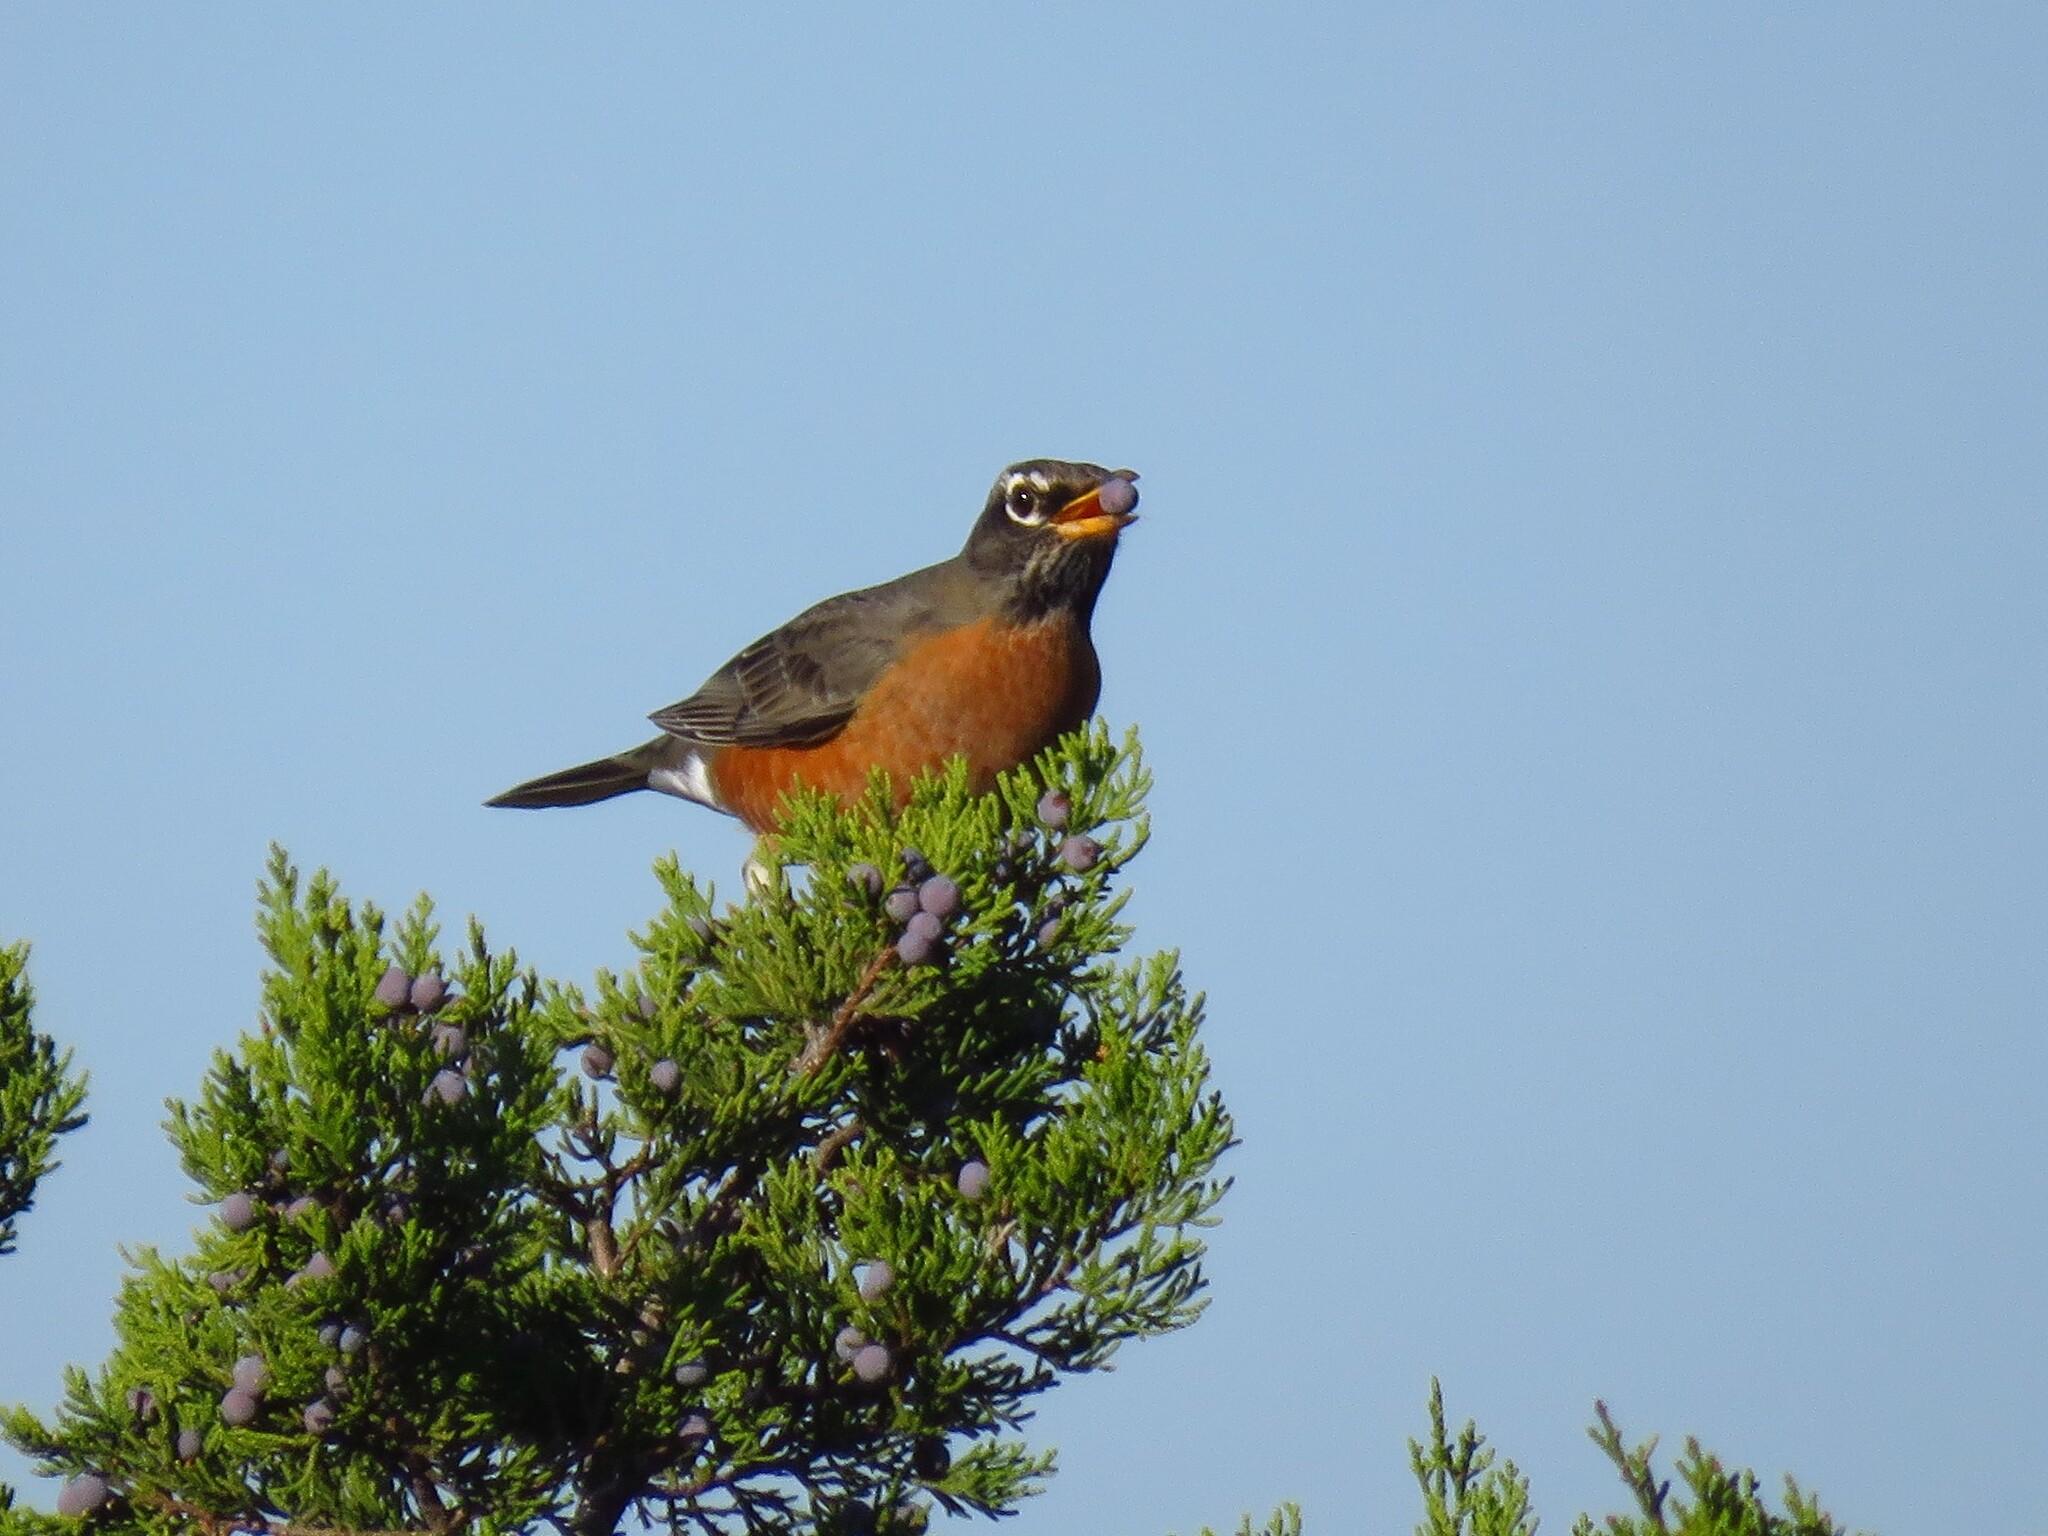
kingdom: Animalia
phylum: Chordata
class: Aves
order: Passeriformes
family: Turdidae
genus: Turdus
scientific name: Turdus migratorius
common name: American robin
